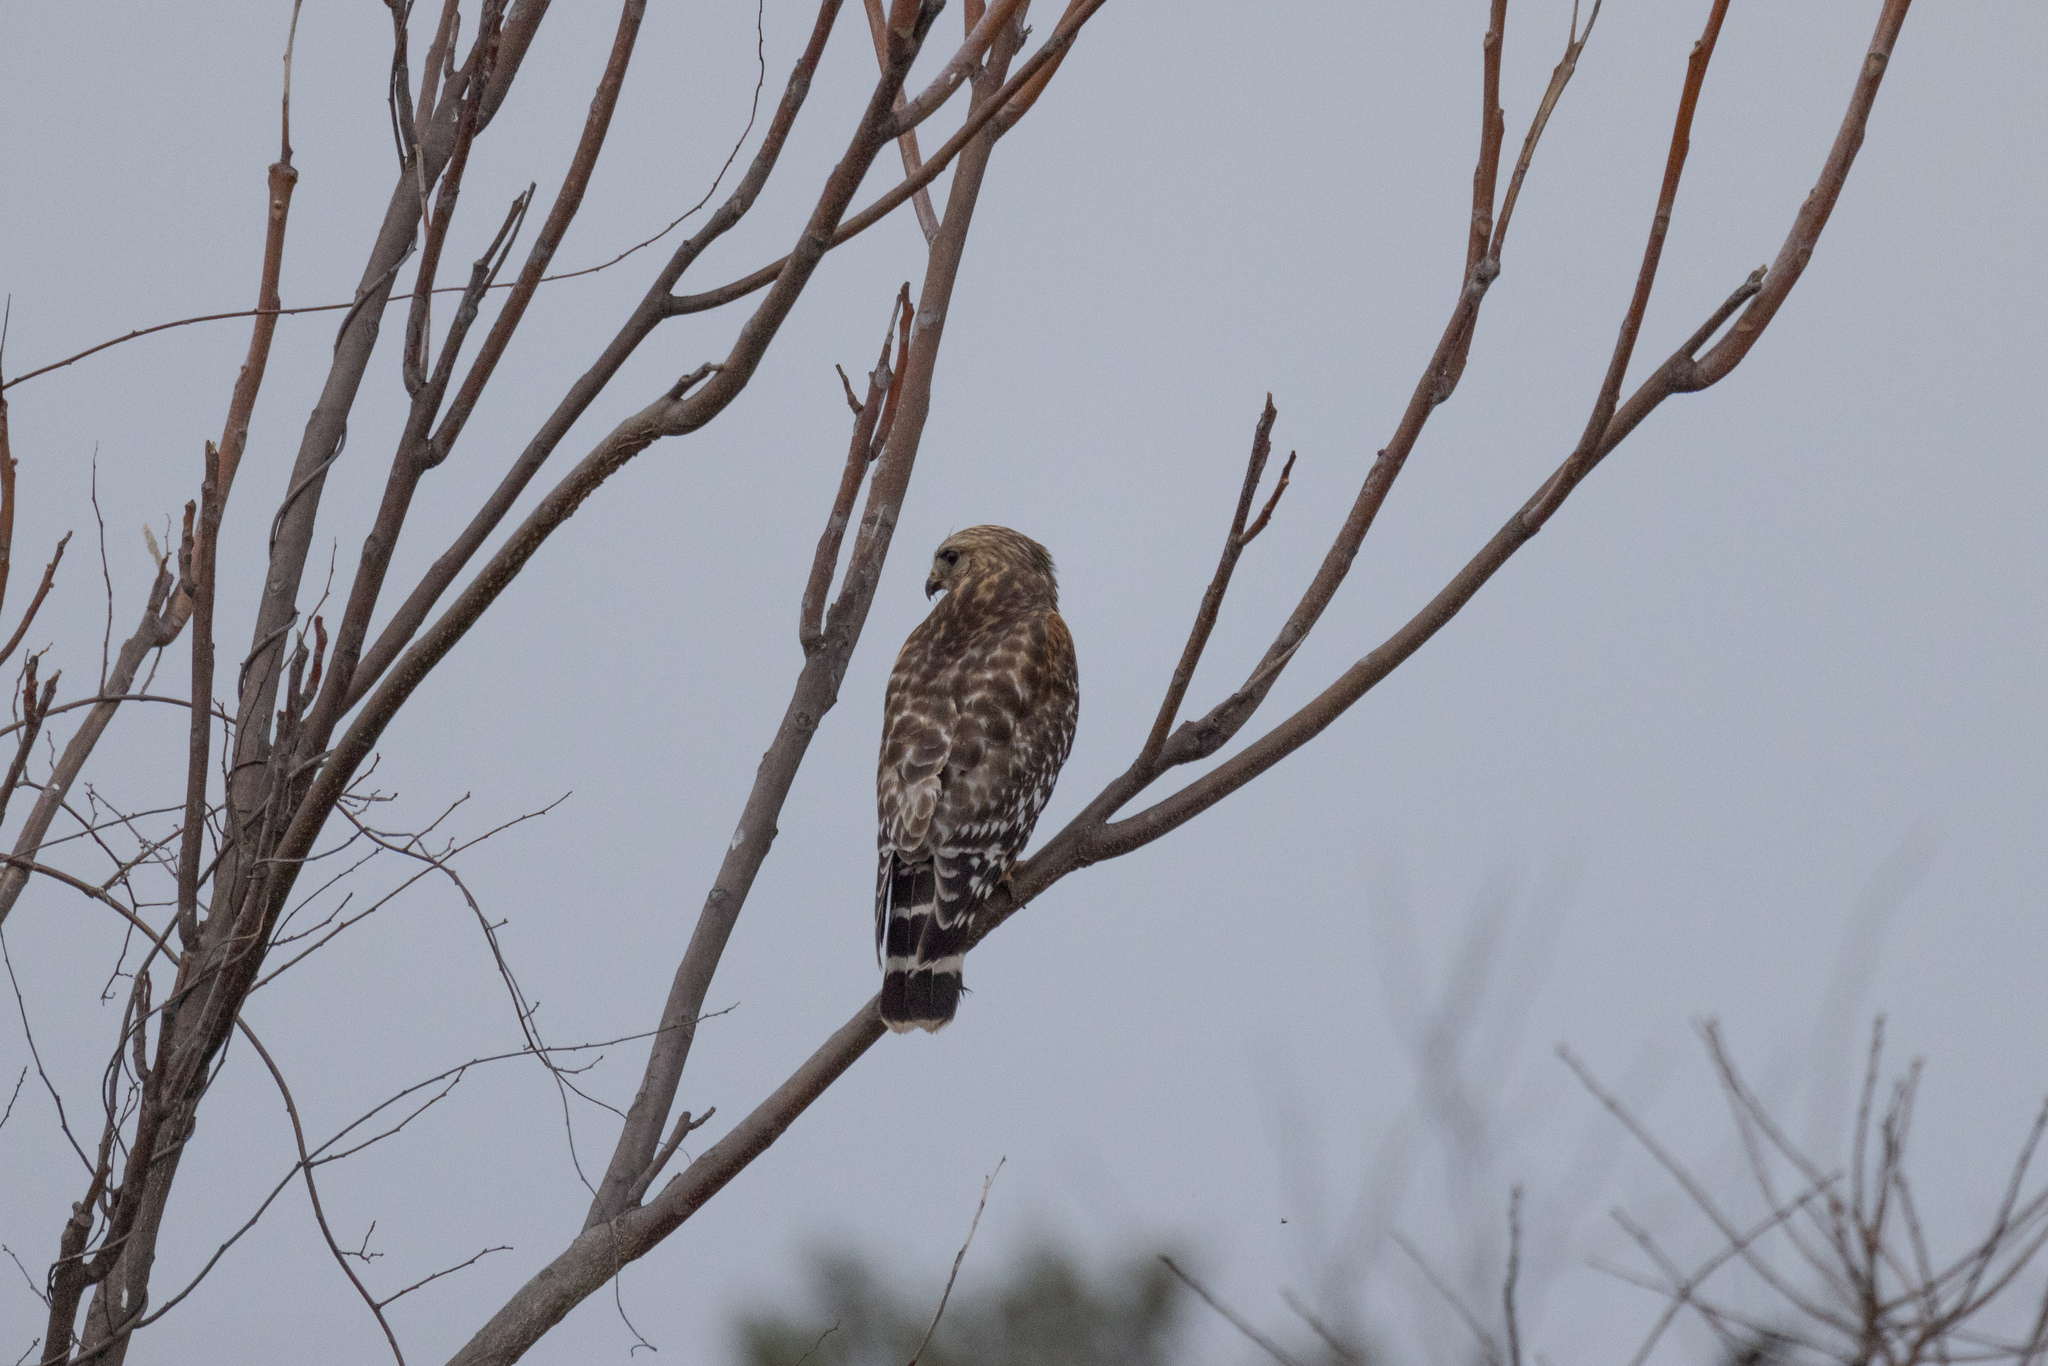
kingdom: Animalia
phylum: Chordata
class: Aves
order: Accipitriformes
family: Accipitridae
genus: Buteo
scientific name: Buteo lineatus
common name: Red-shouldered hawk
